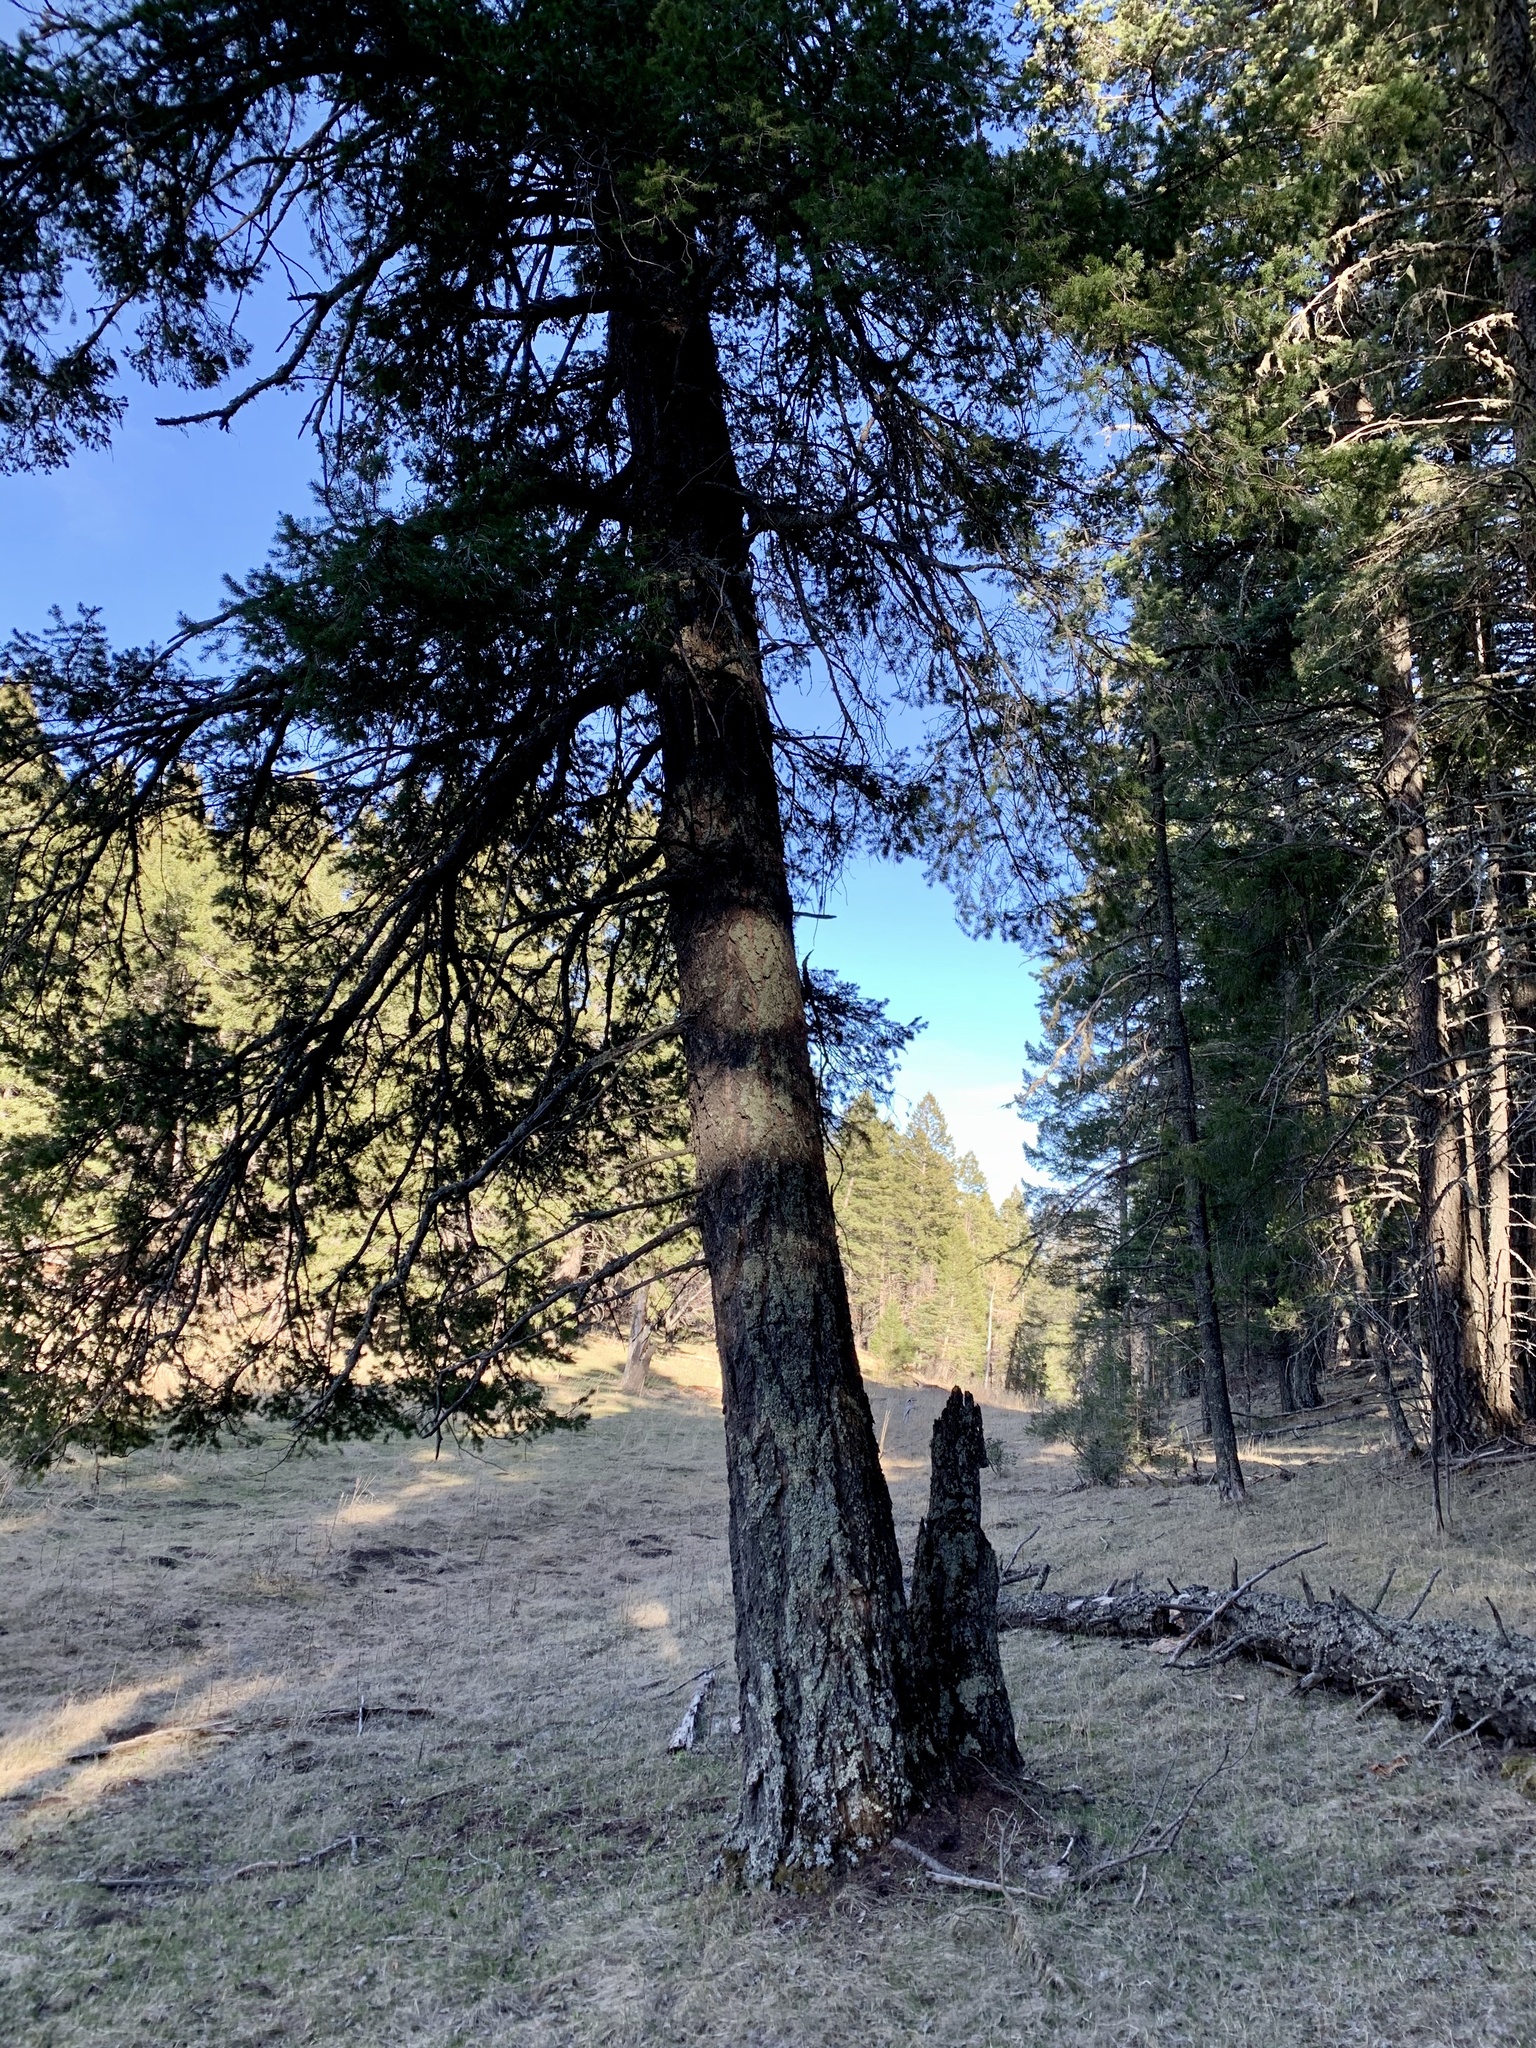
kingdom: Plantae
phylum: Tracheophyta
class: Pinopsida
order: Pinales
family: Pinaceae
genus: Pseudotsuga
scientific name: Pseudotsuga menziesii
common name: Douglas fir
